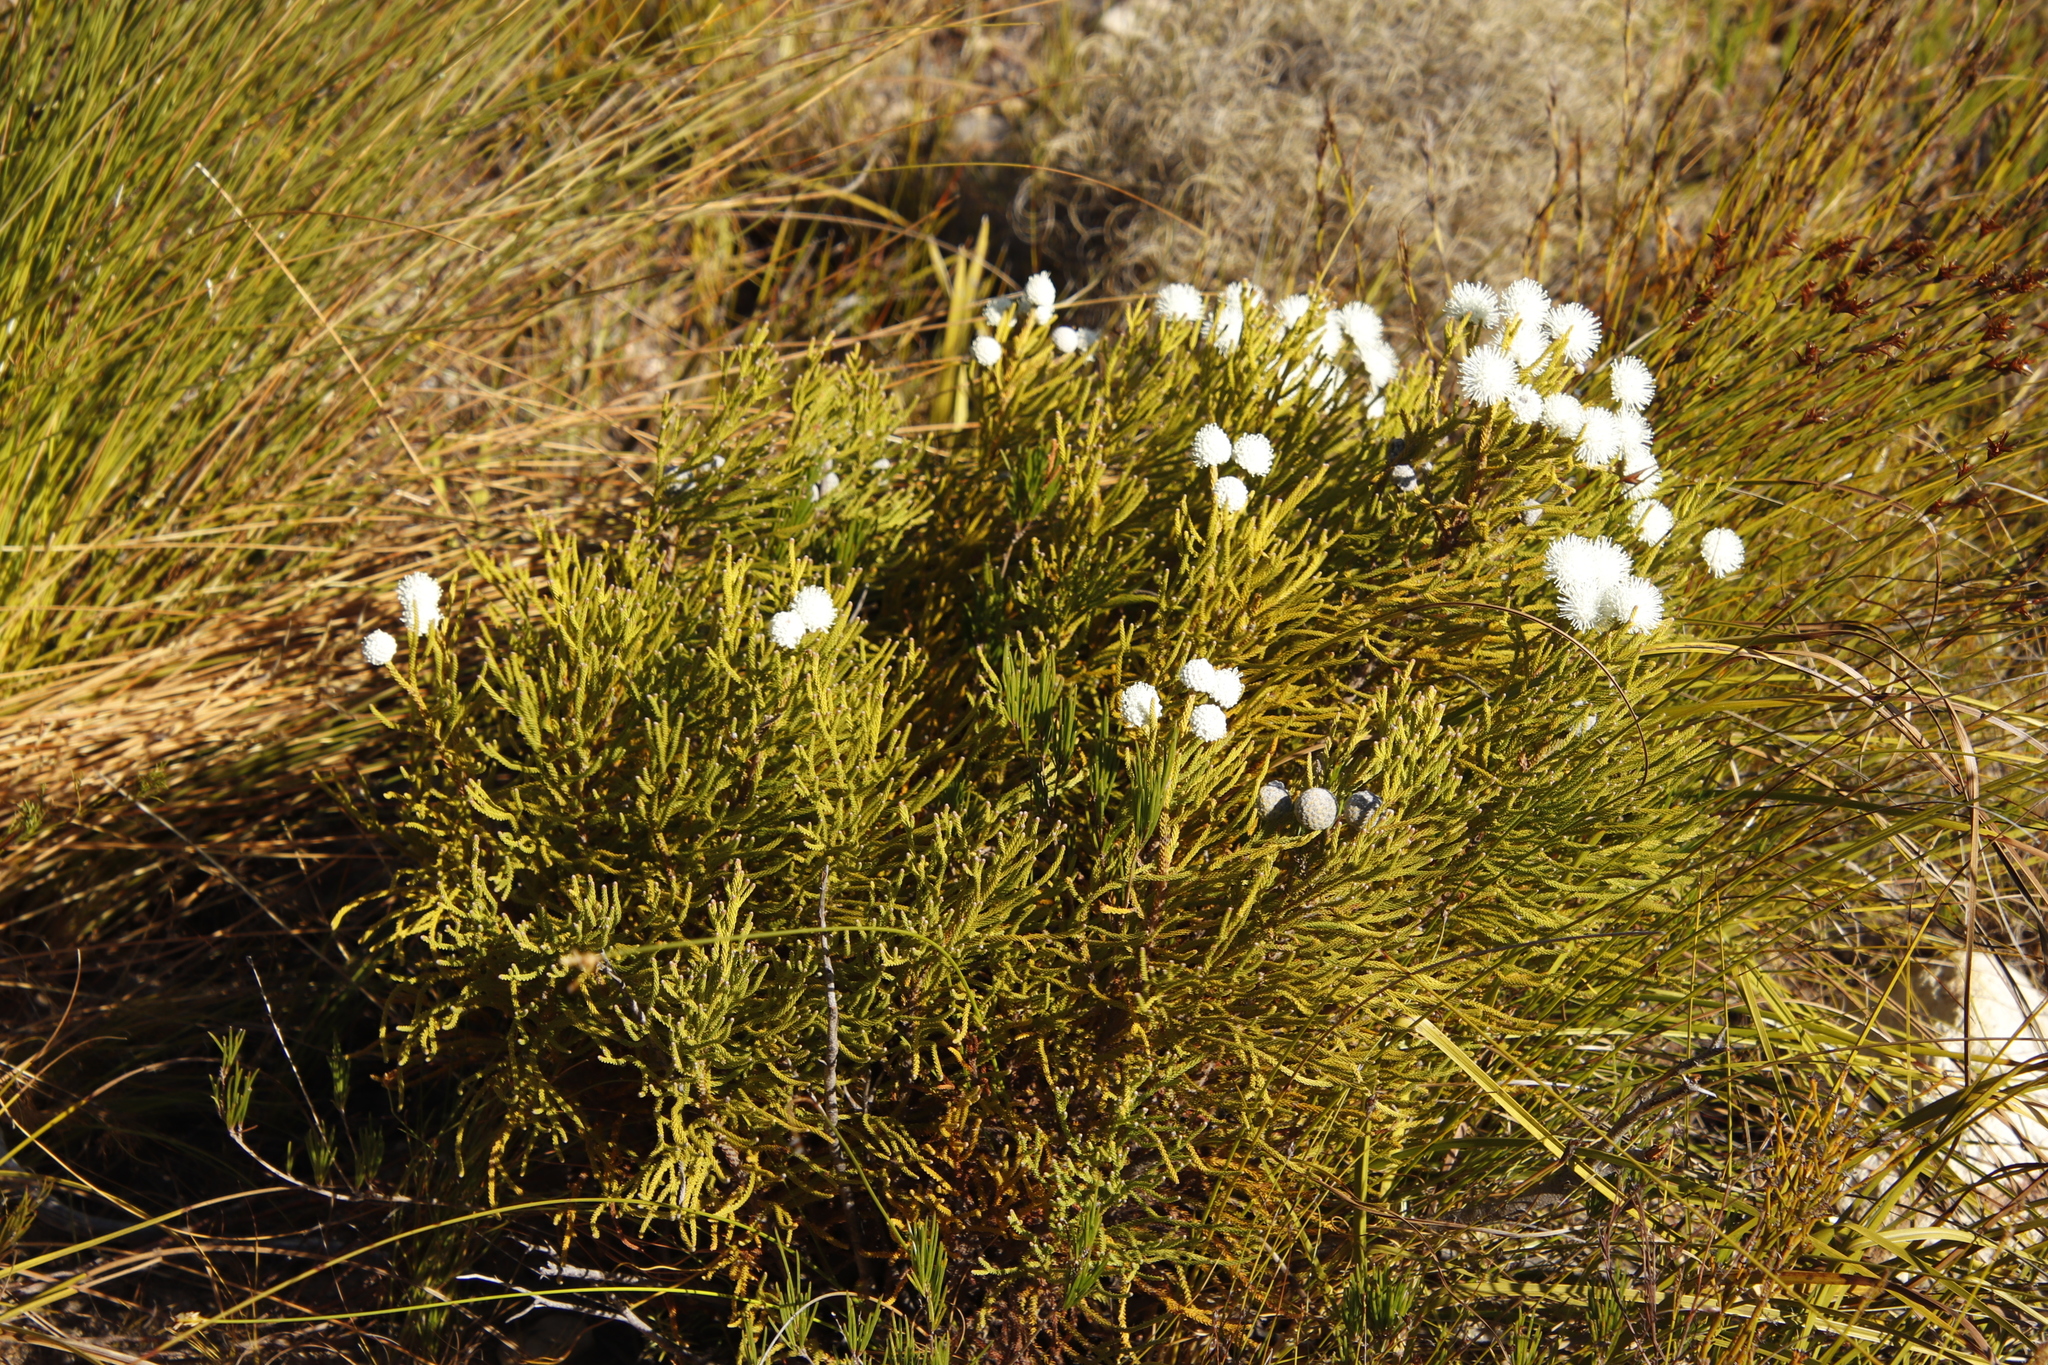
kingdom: Plantae
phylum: Tracheophyta
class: Magnoliopsida
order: Bruniales
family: Bruniaceae
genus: Brunia
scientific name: Brunia noduliflora
